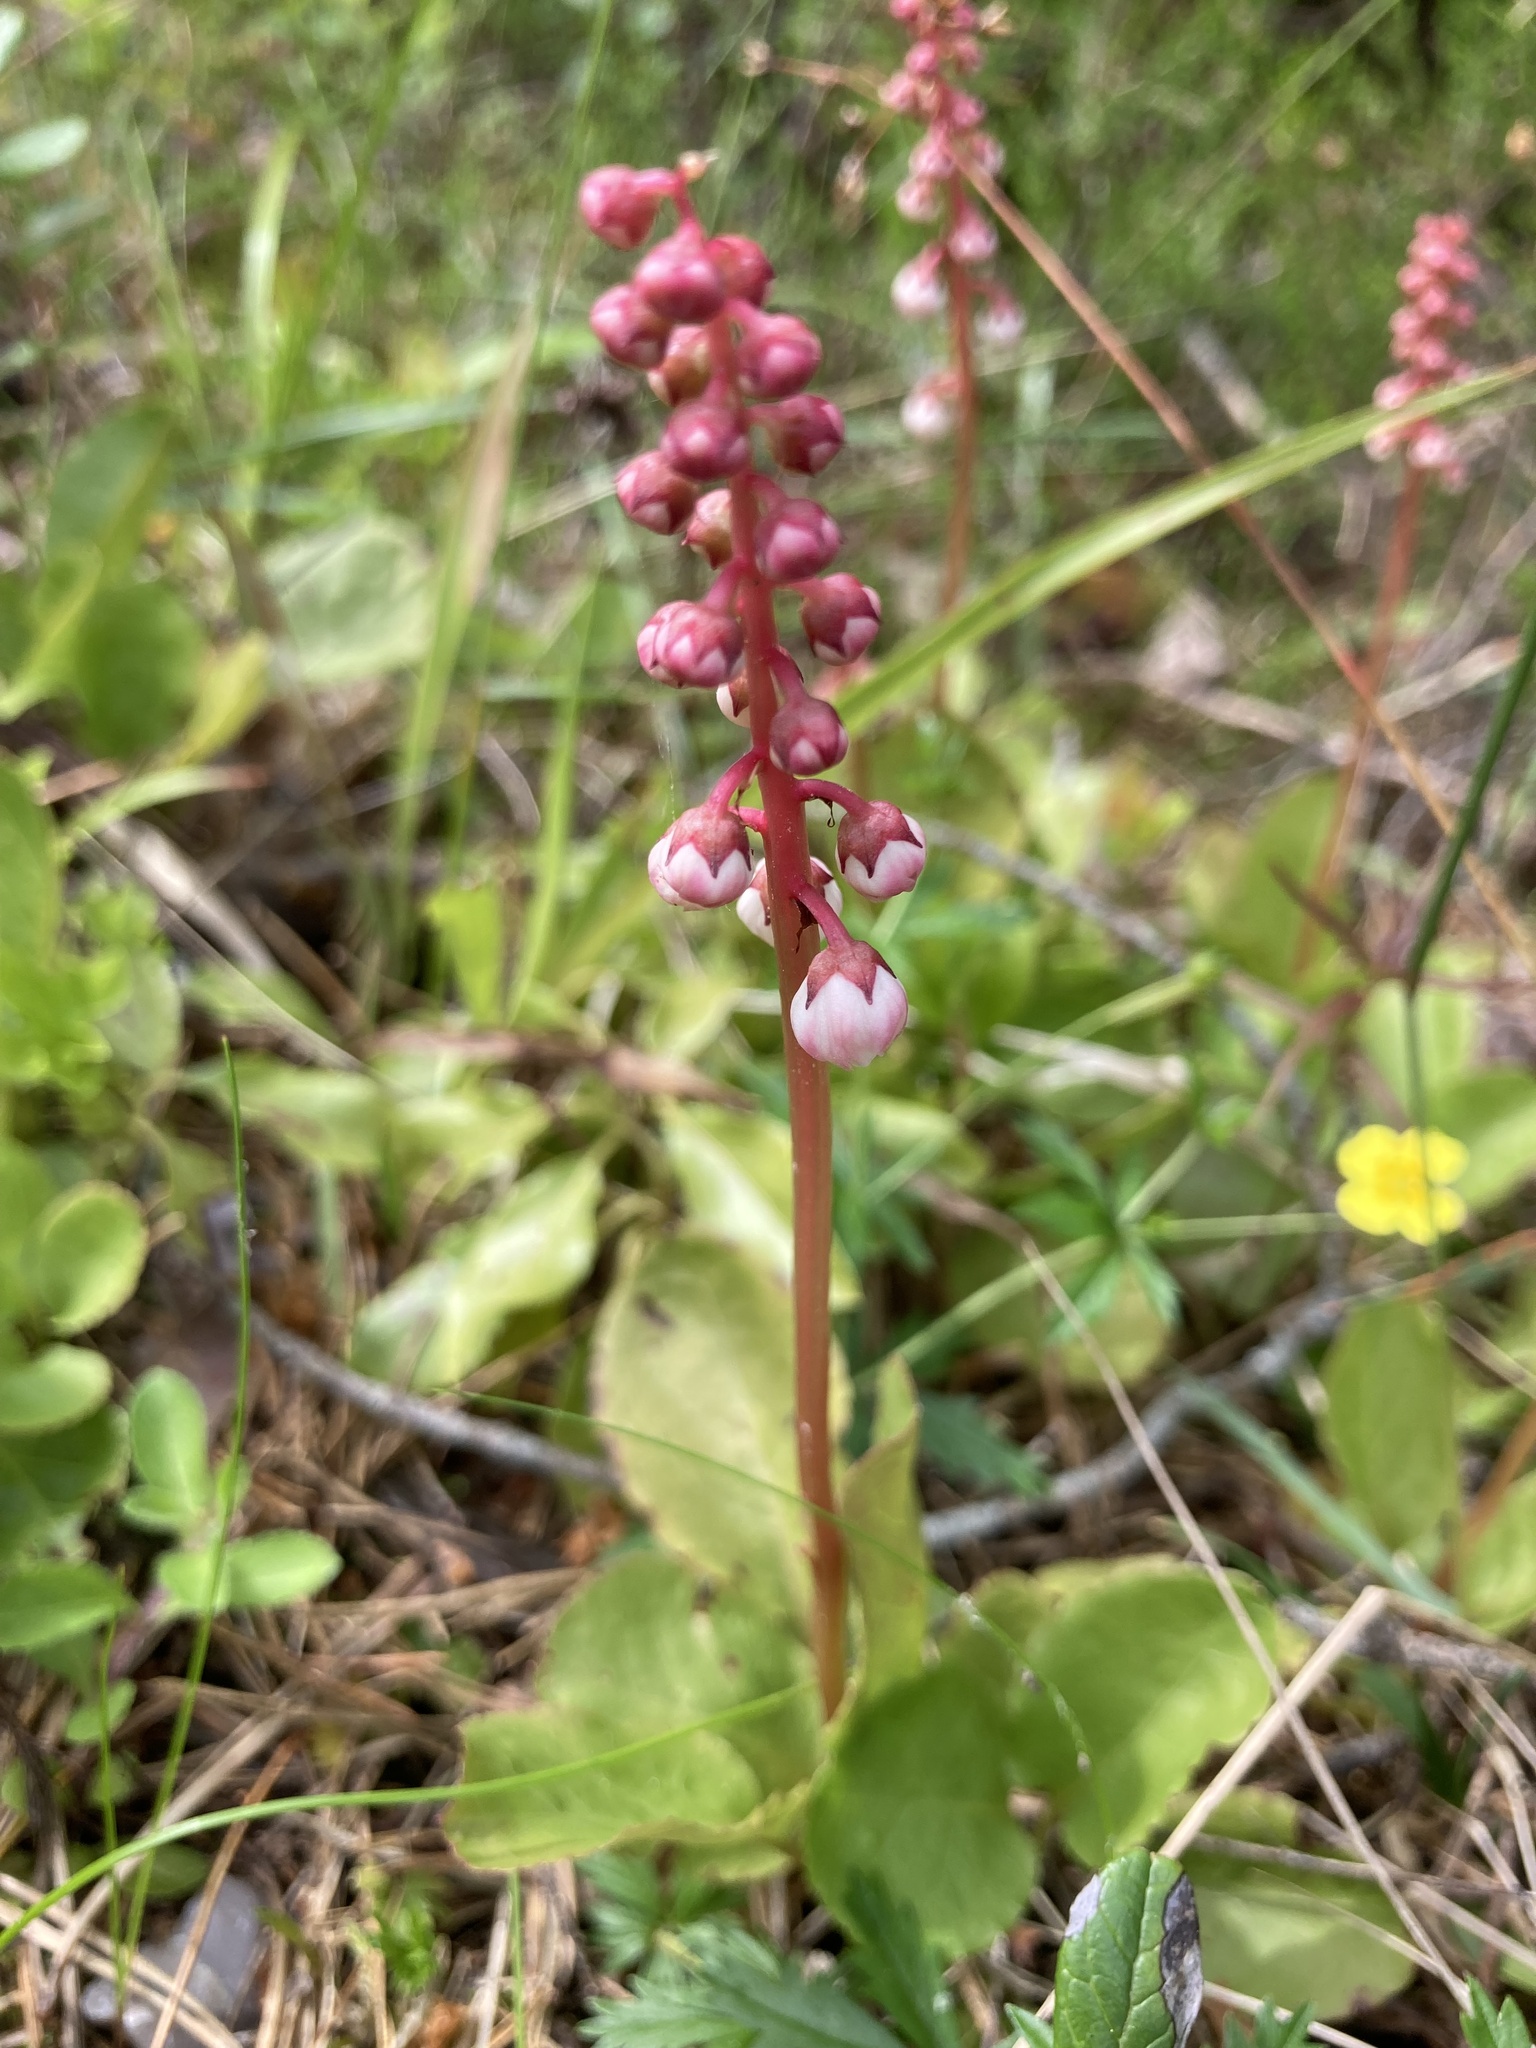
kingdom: Plantae
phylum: Tracheophyta
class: Magnoliopsida
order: Ericales
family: Ericaceae
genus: Pyrola
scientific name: Pyrola minor
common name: Common wintergreen
